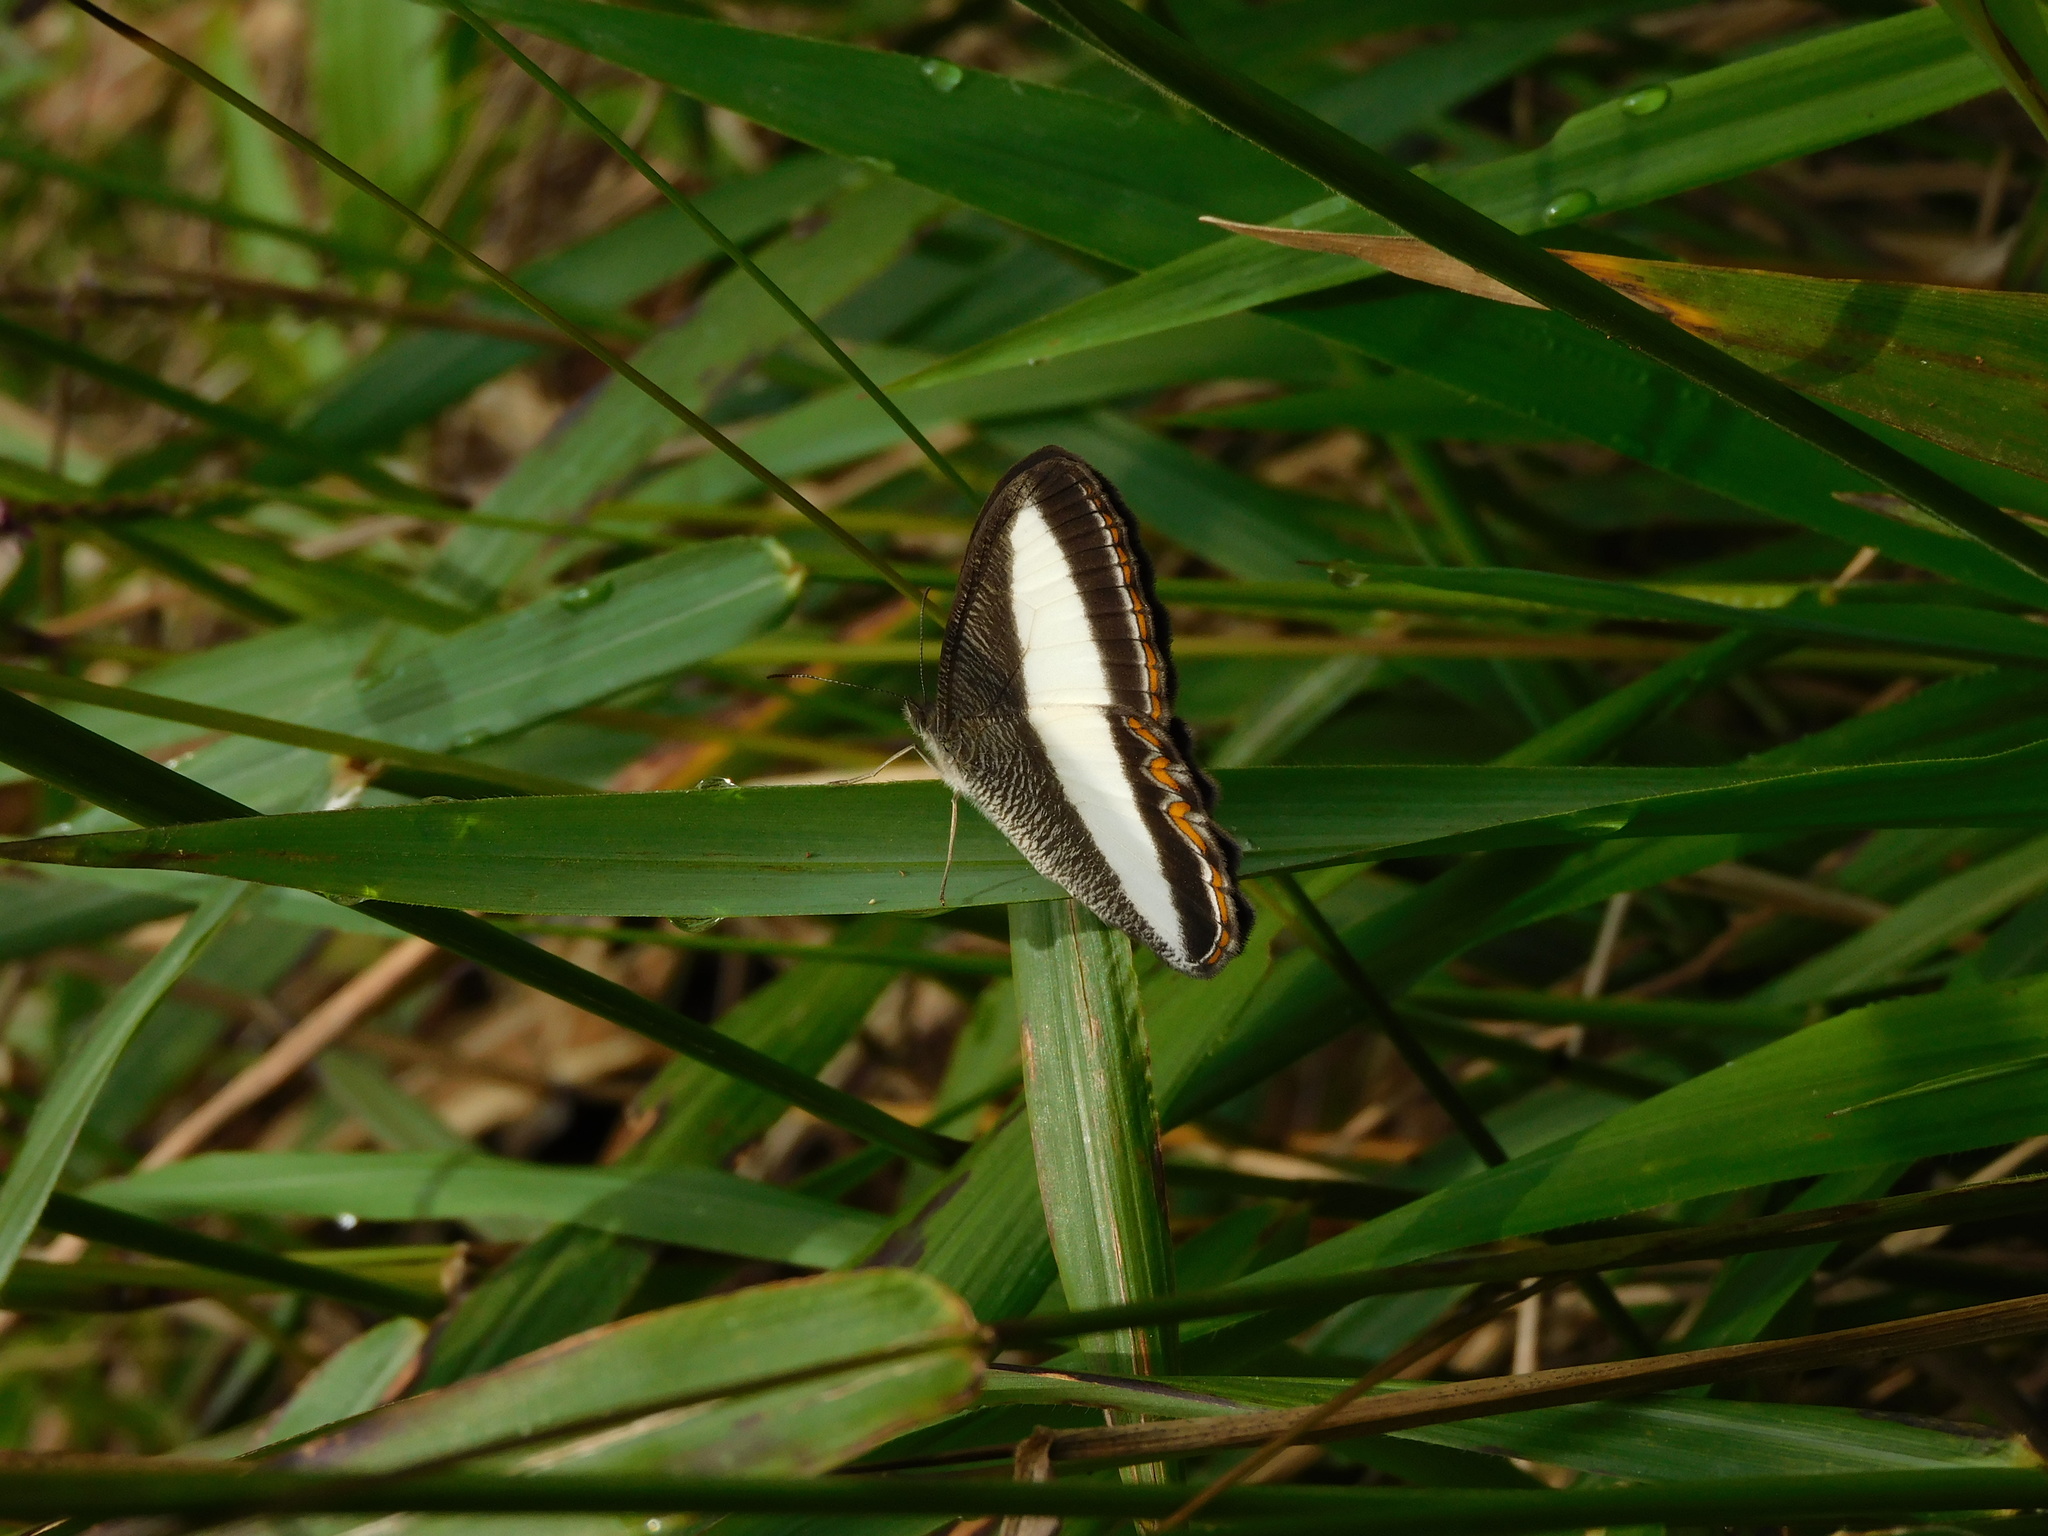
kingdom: Animalia
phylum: Arthropoda
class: Insecta
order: Lepidoptera
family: Nymphalidae
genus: Oressinoma
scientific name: Oressinoma typhla
